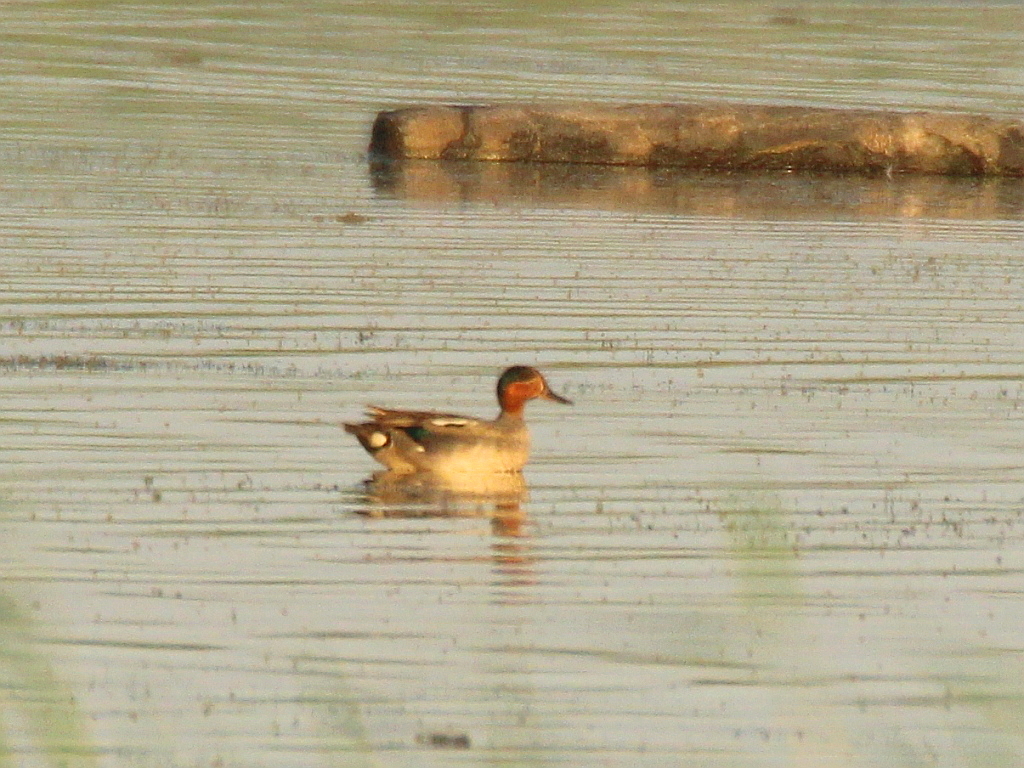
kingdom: Animalia
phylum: Chordata
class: Aves
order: Anseriformes
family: Anatidae
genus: Anas
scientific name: Anas crecca
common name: Eurasian teal
